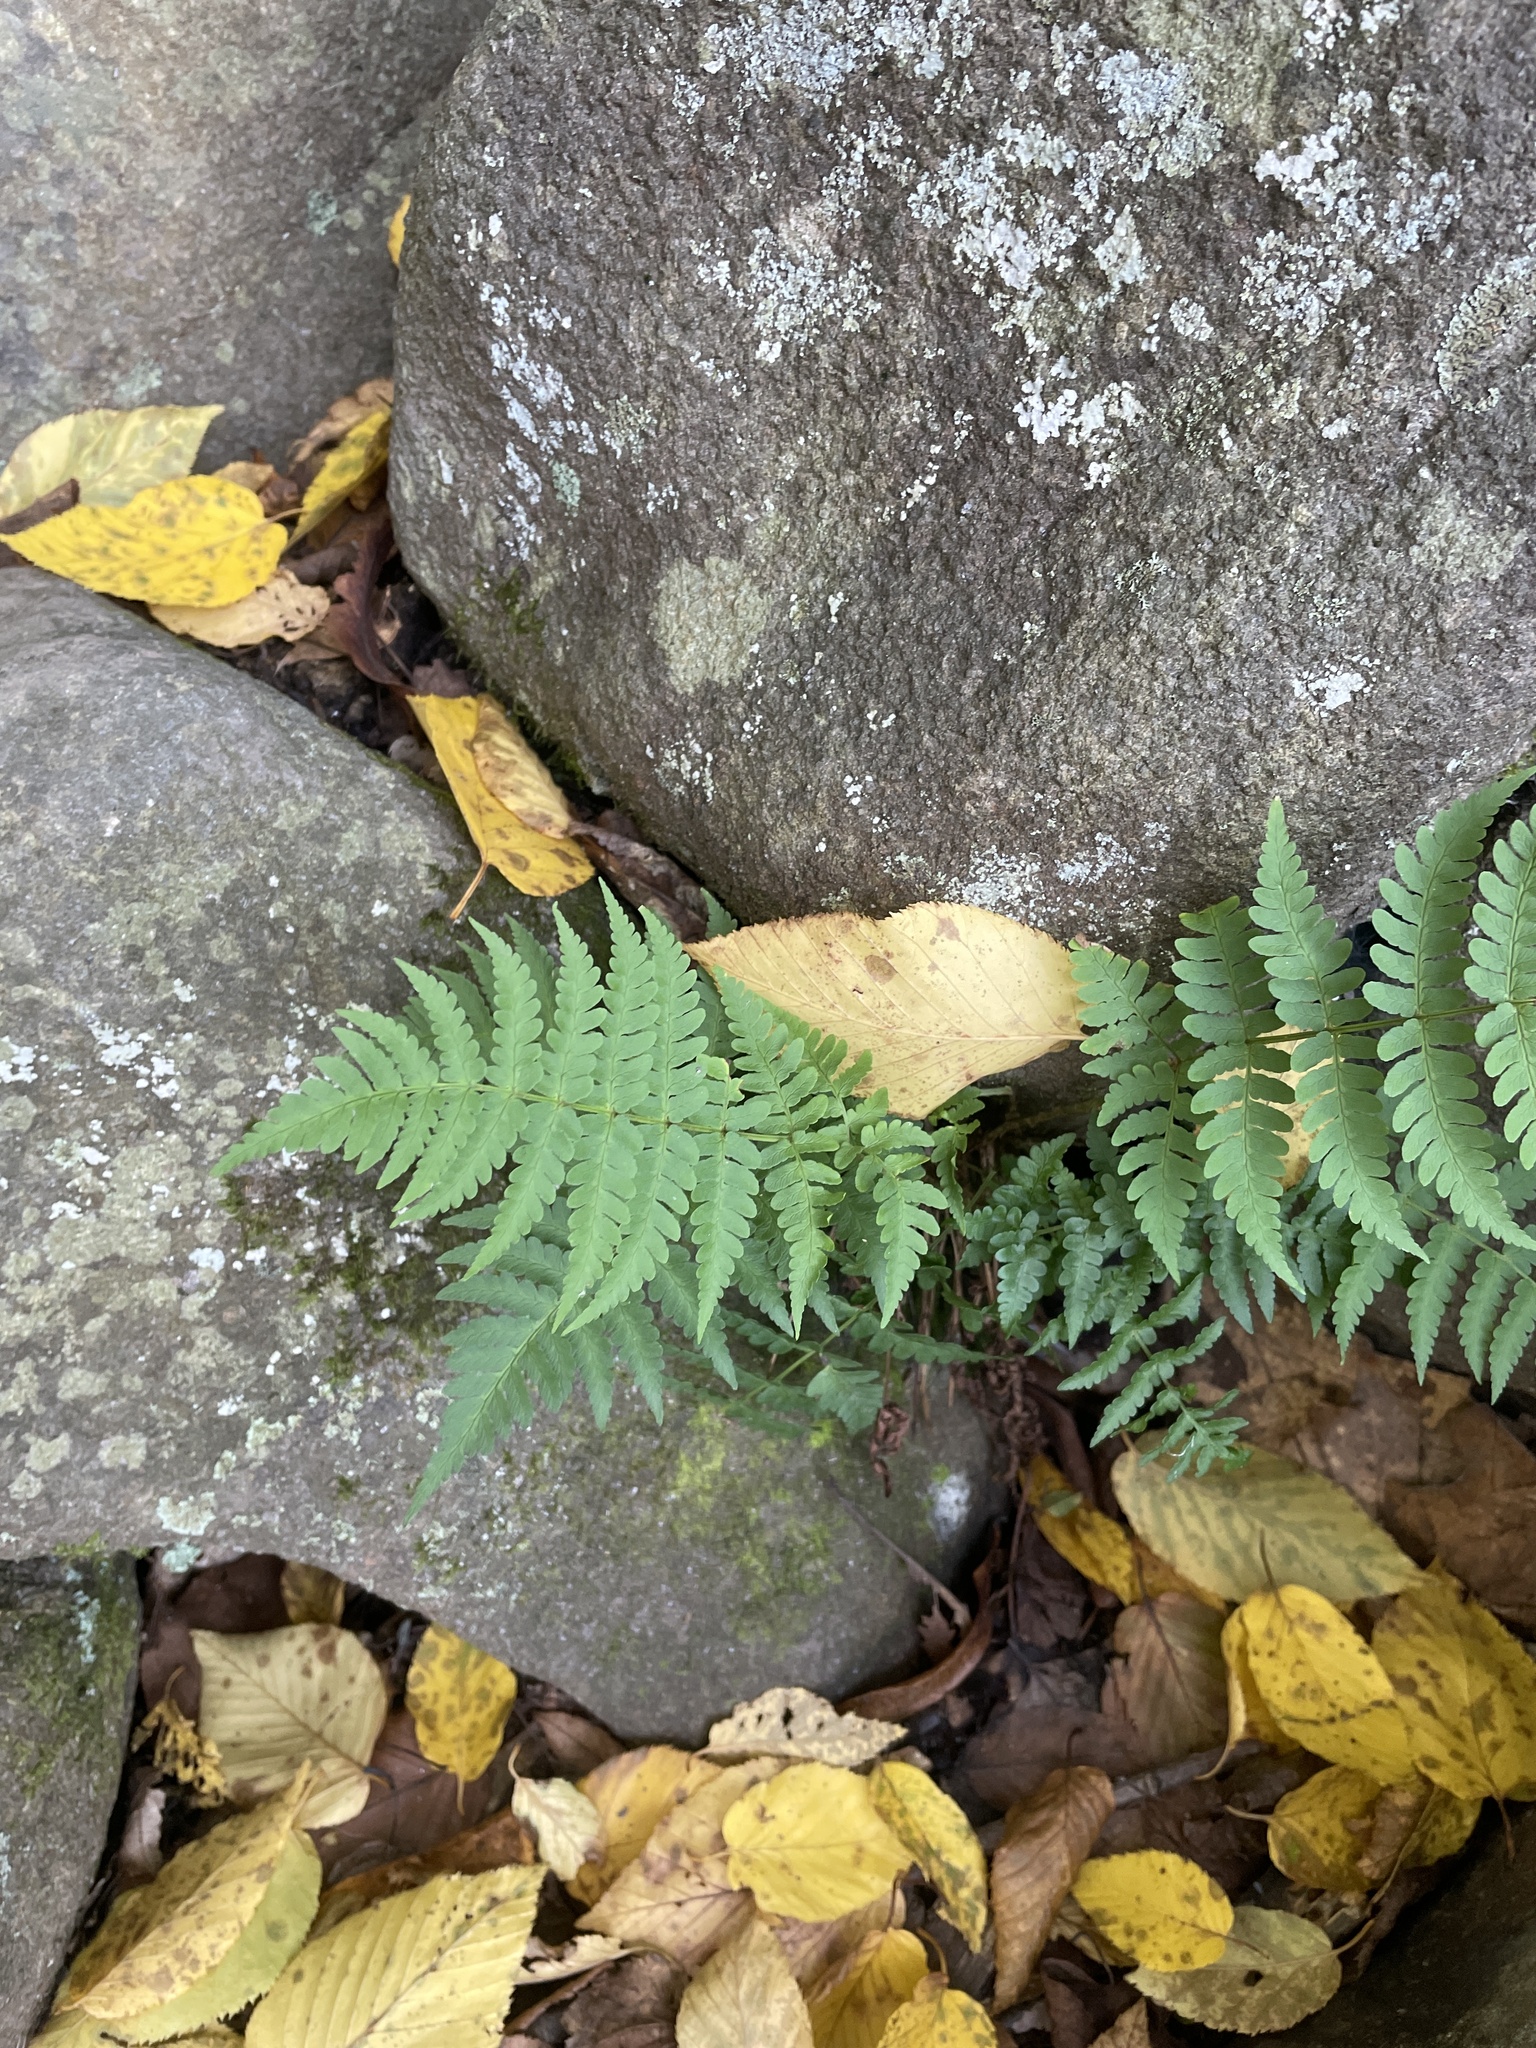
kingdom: Plantae
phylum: Tracheophyta
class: Polypodiopsida
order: Polypodiales
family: Dryopteridaceae
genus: Dryopteris
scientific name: Dryopteris marginalis
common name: Marginal wood fern
